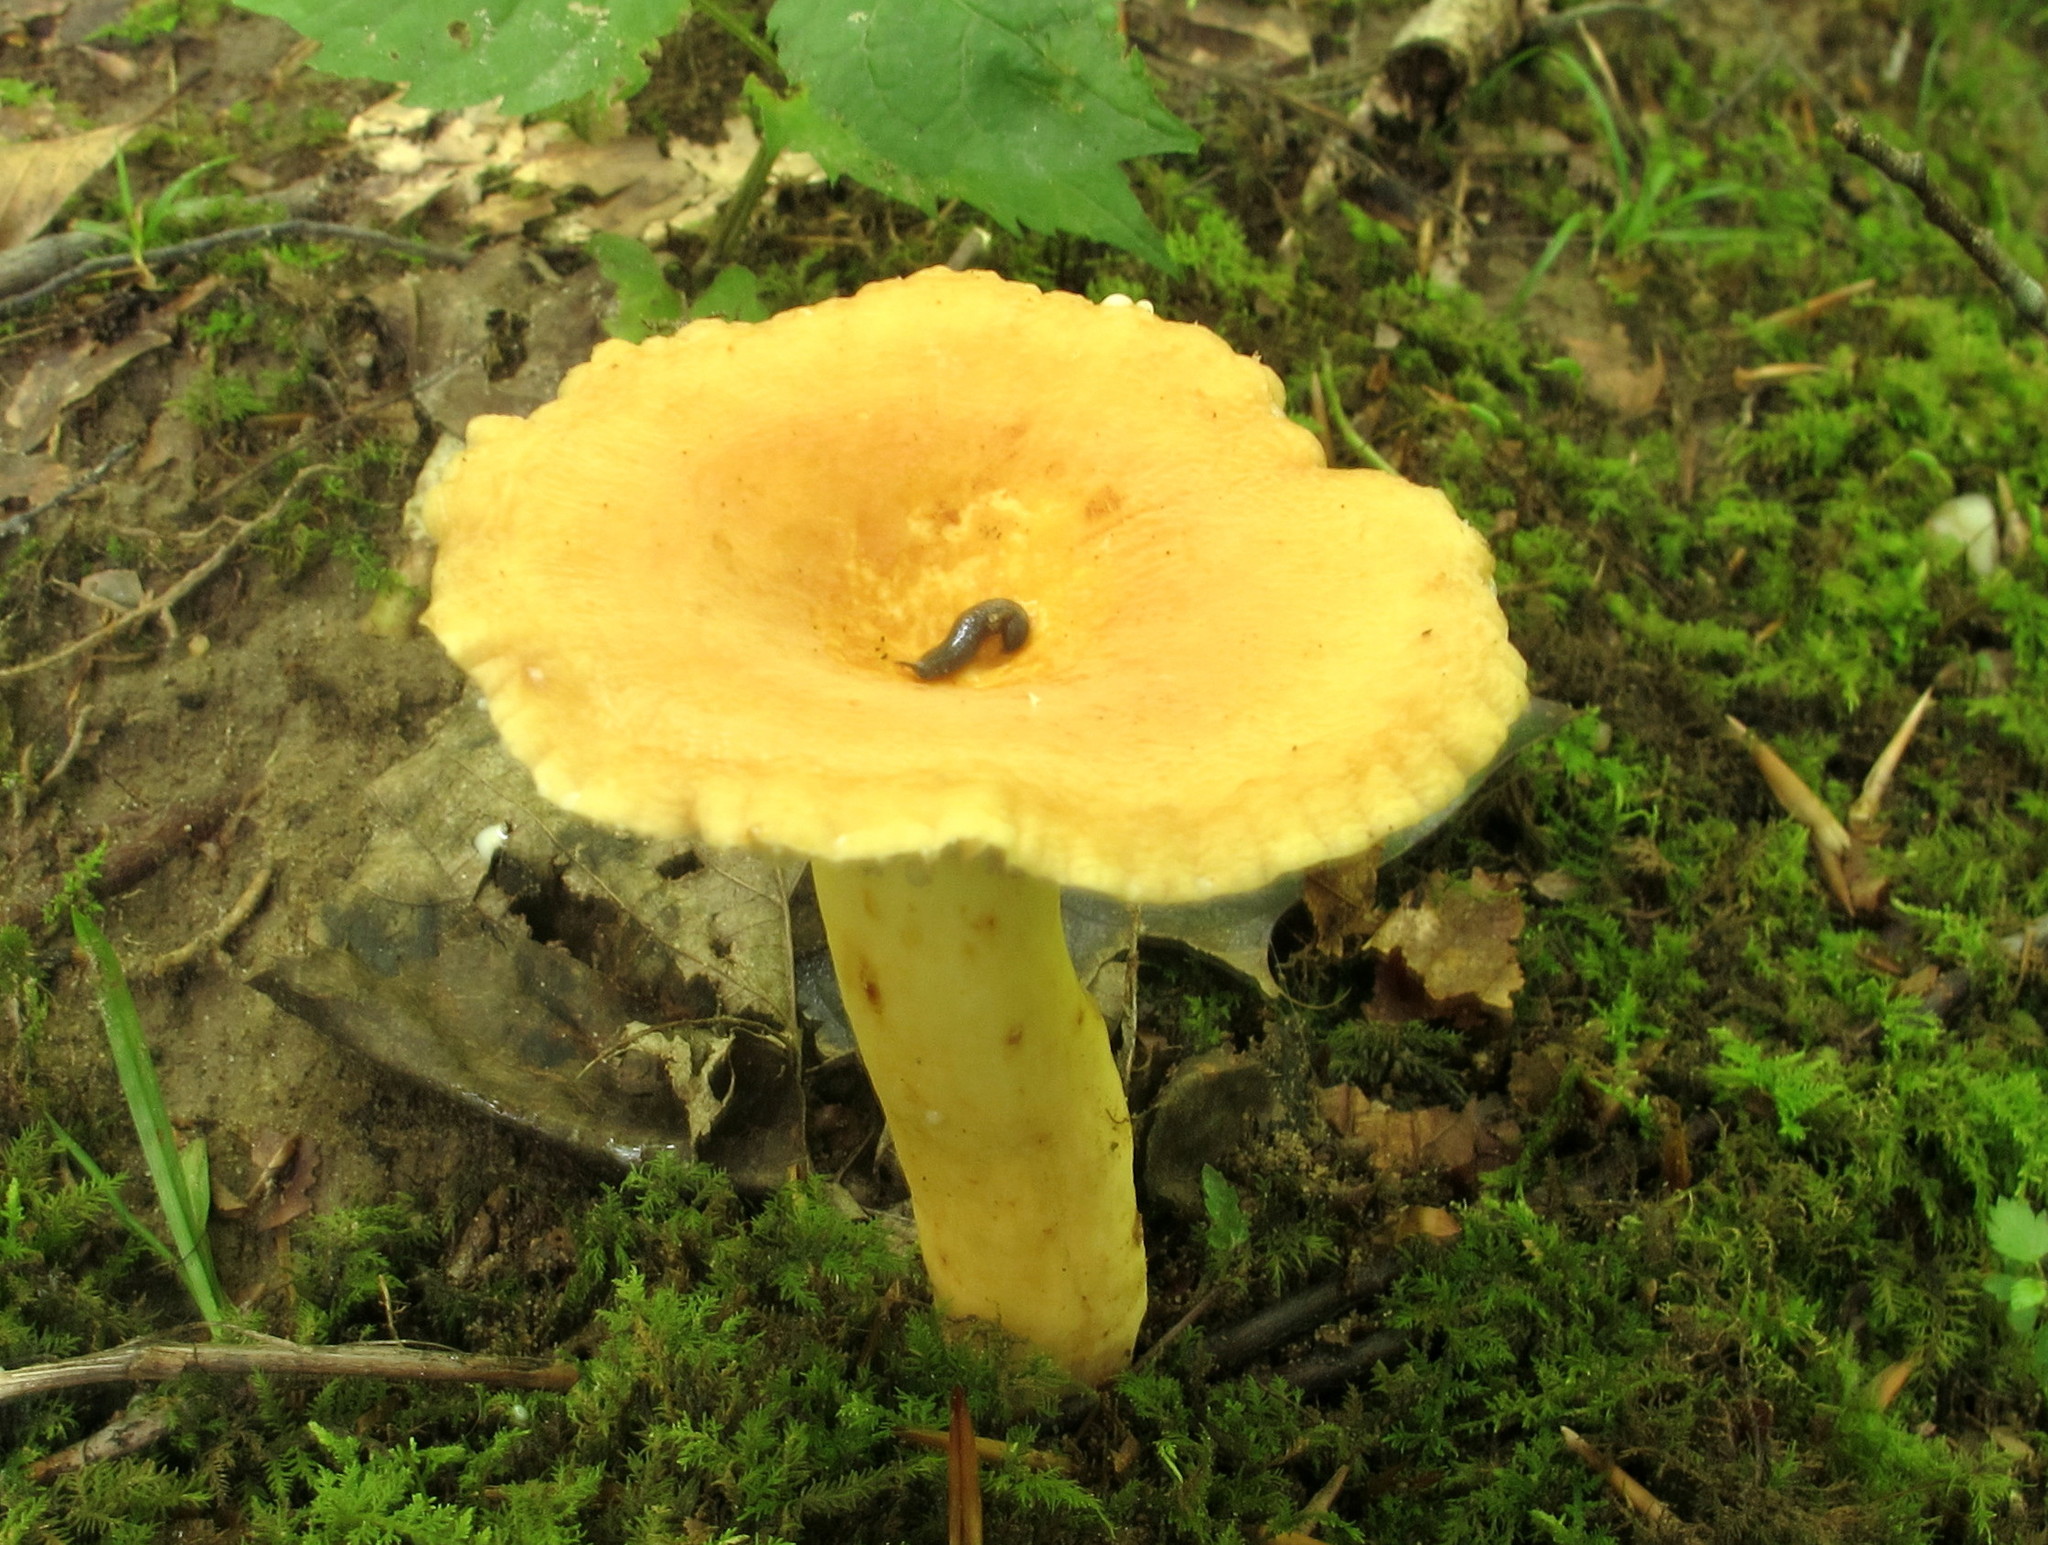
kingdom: Fungi
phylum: Basidiomycota
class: Agaricomycetes
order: Russulales
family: Russulaceae
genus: Lactarius
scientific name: Lactarius hygrophoroides
